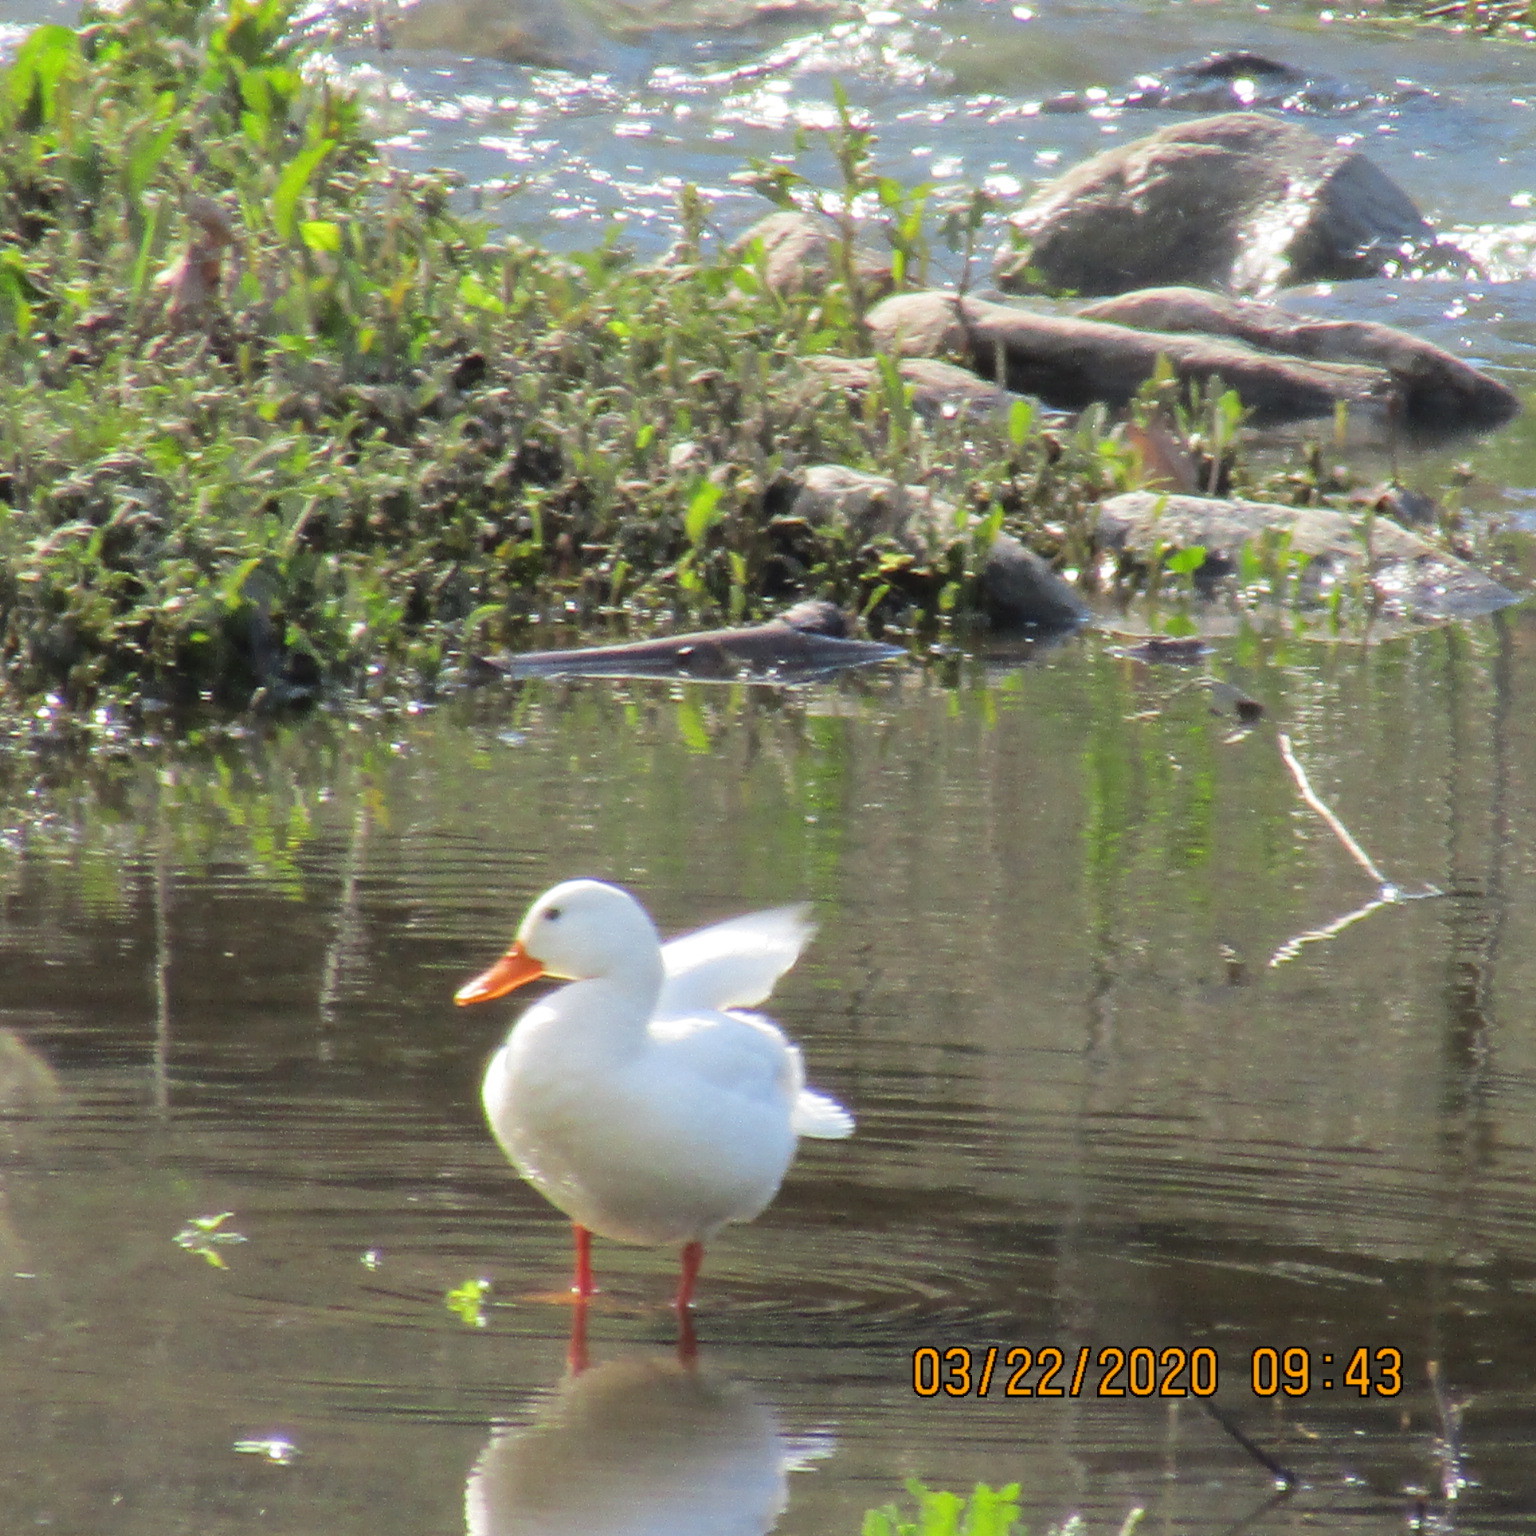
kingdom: Animalia
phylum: Chordata
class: Aves
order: Anseriformes
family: Anatidae
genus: Anas
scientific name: Anas platyrhynchos
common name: Mallard
